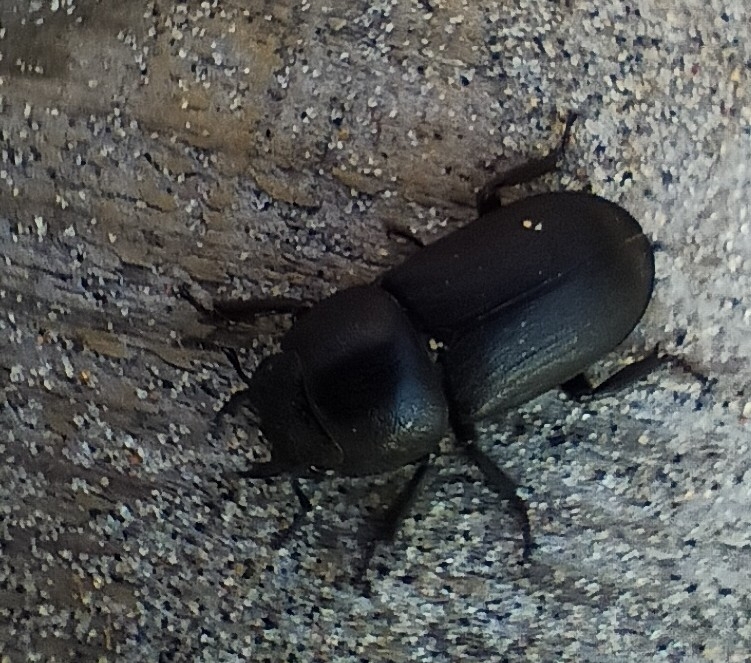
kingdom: Animalia
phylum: Arthropoda
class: Insecta
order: Coleoptera
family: Lucanidae
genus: Dorcus
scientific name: Dorcus parallelipipedus
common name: Lesser stag beetle
